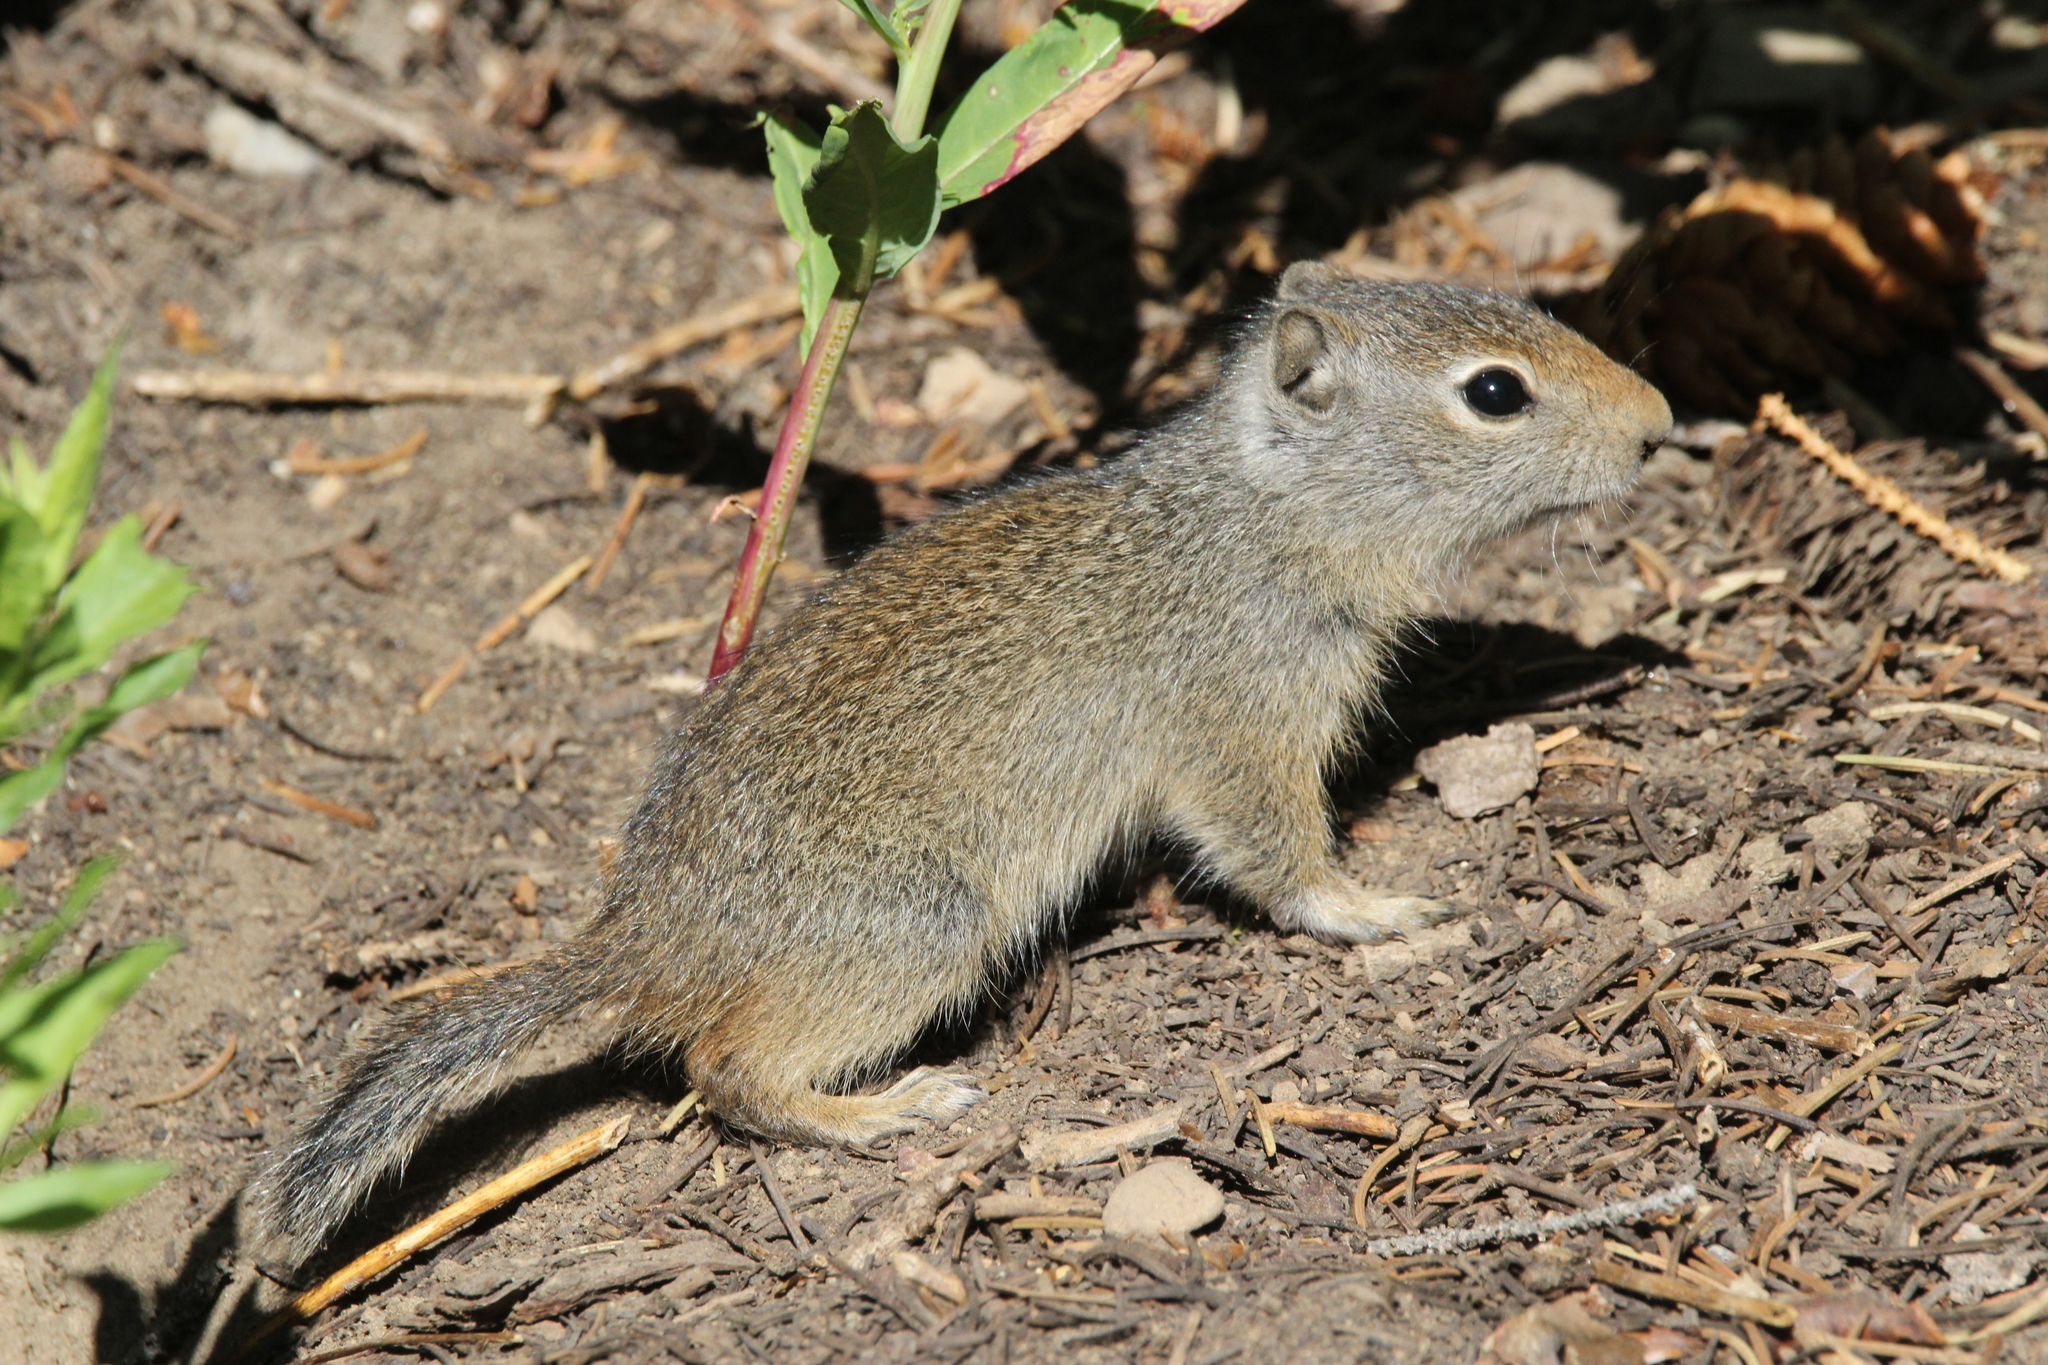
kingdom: Animalia
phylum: Chordata
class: Mammalia
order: Rodentia
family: Sciuridae
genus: Urocitellus
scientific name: Urocitellus armatus
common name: Uinta ground squirrel
